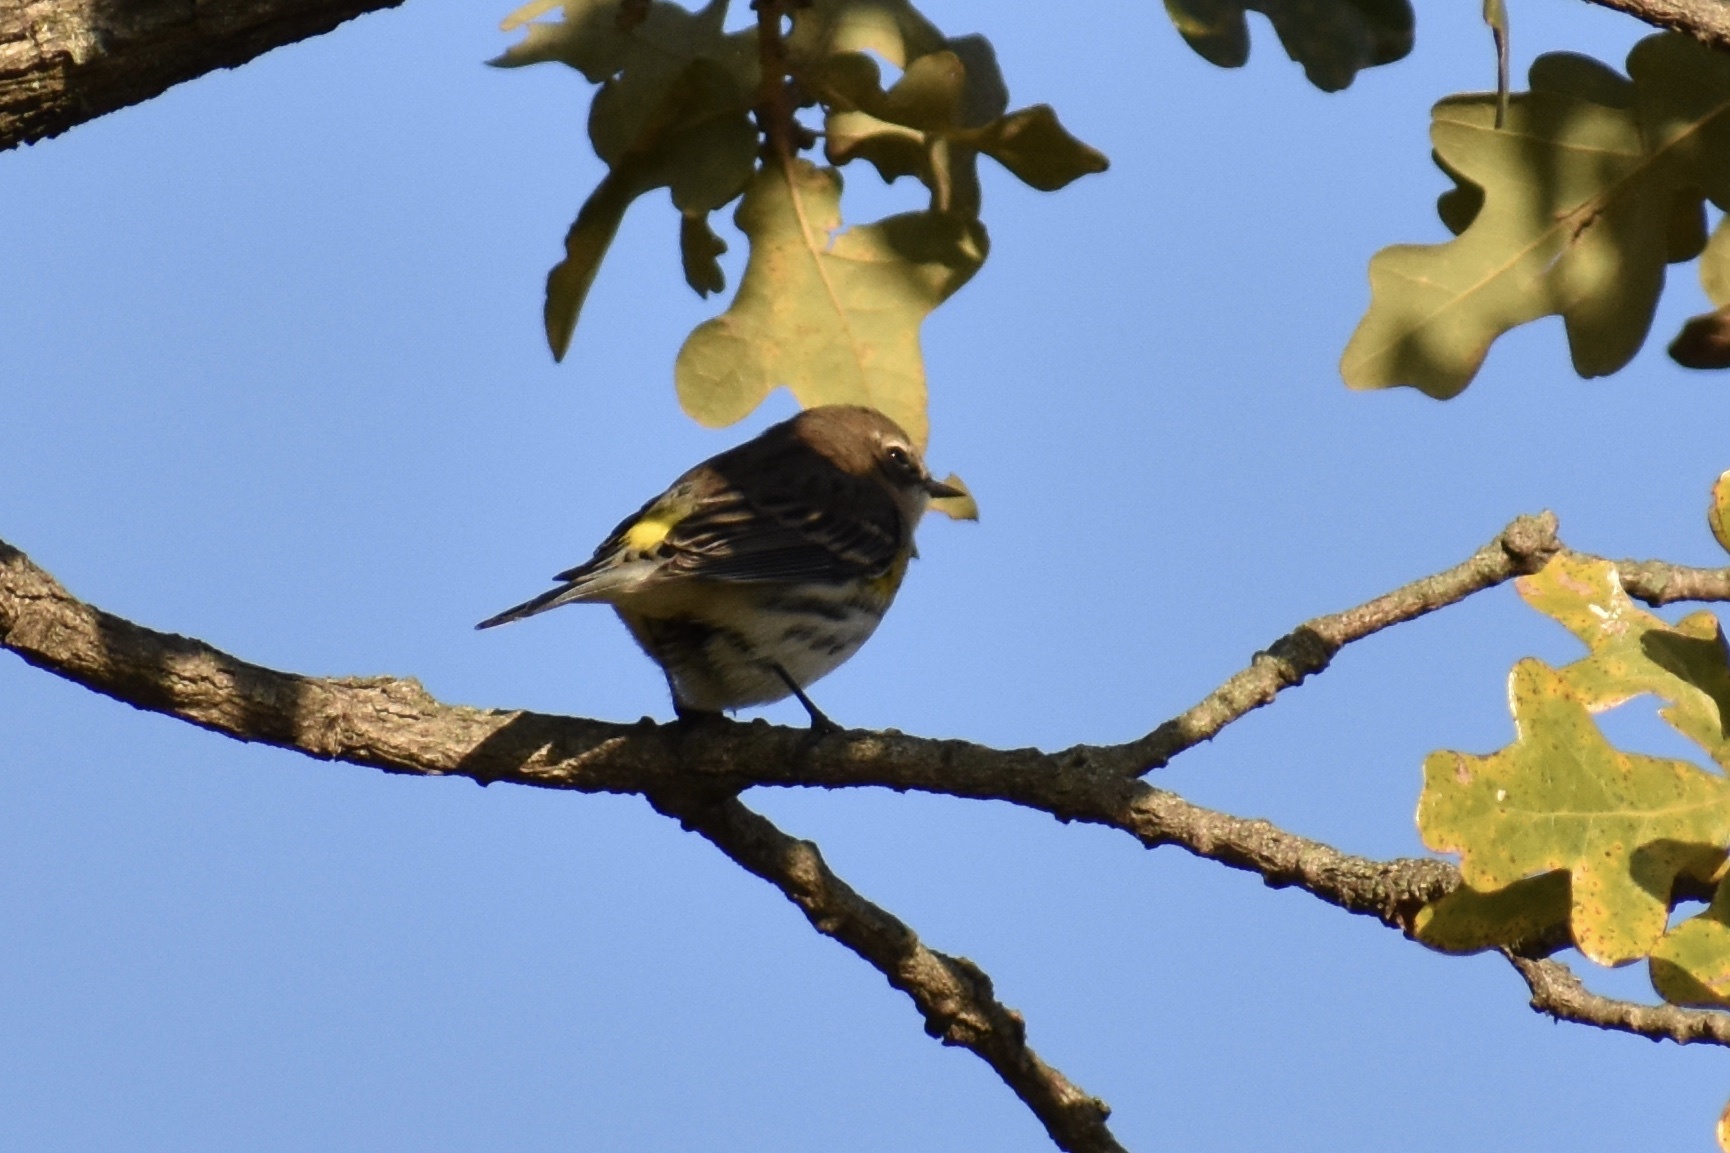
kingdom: Animalia
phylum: Chordata
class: Aves
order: Passeriformes
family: Parulidae
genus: Setophaga
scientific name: Setophaga coronata
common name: Myrtle warbler
